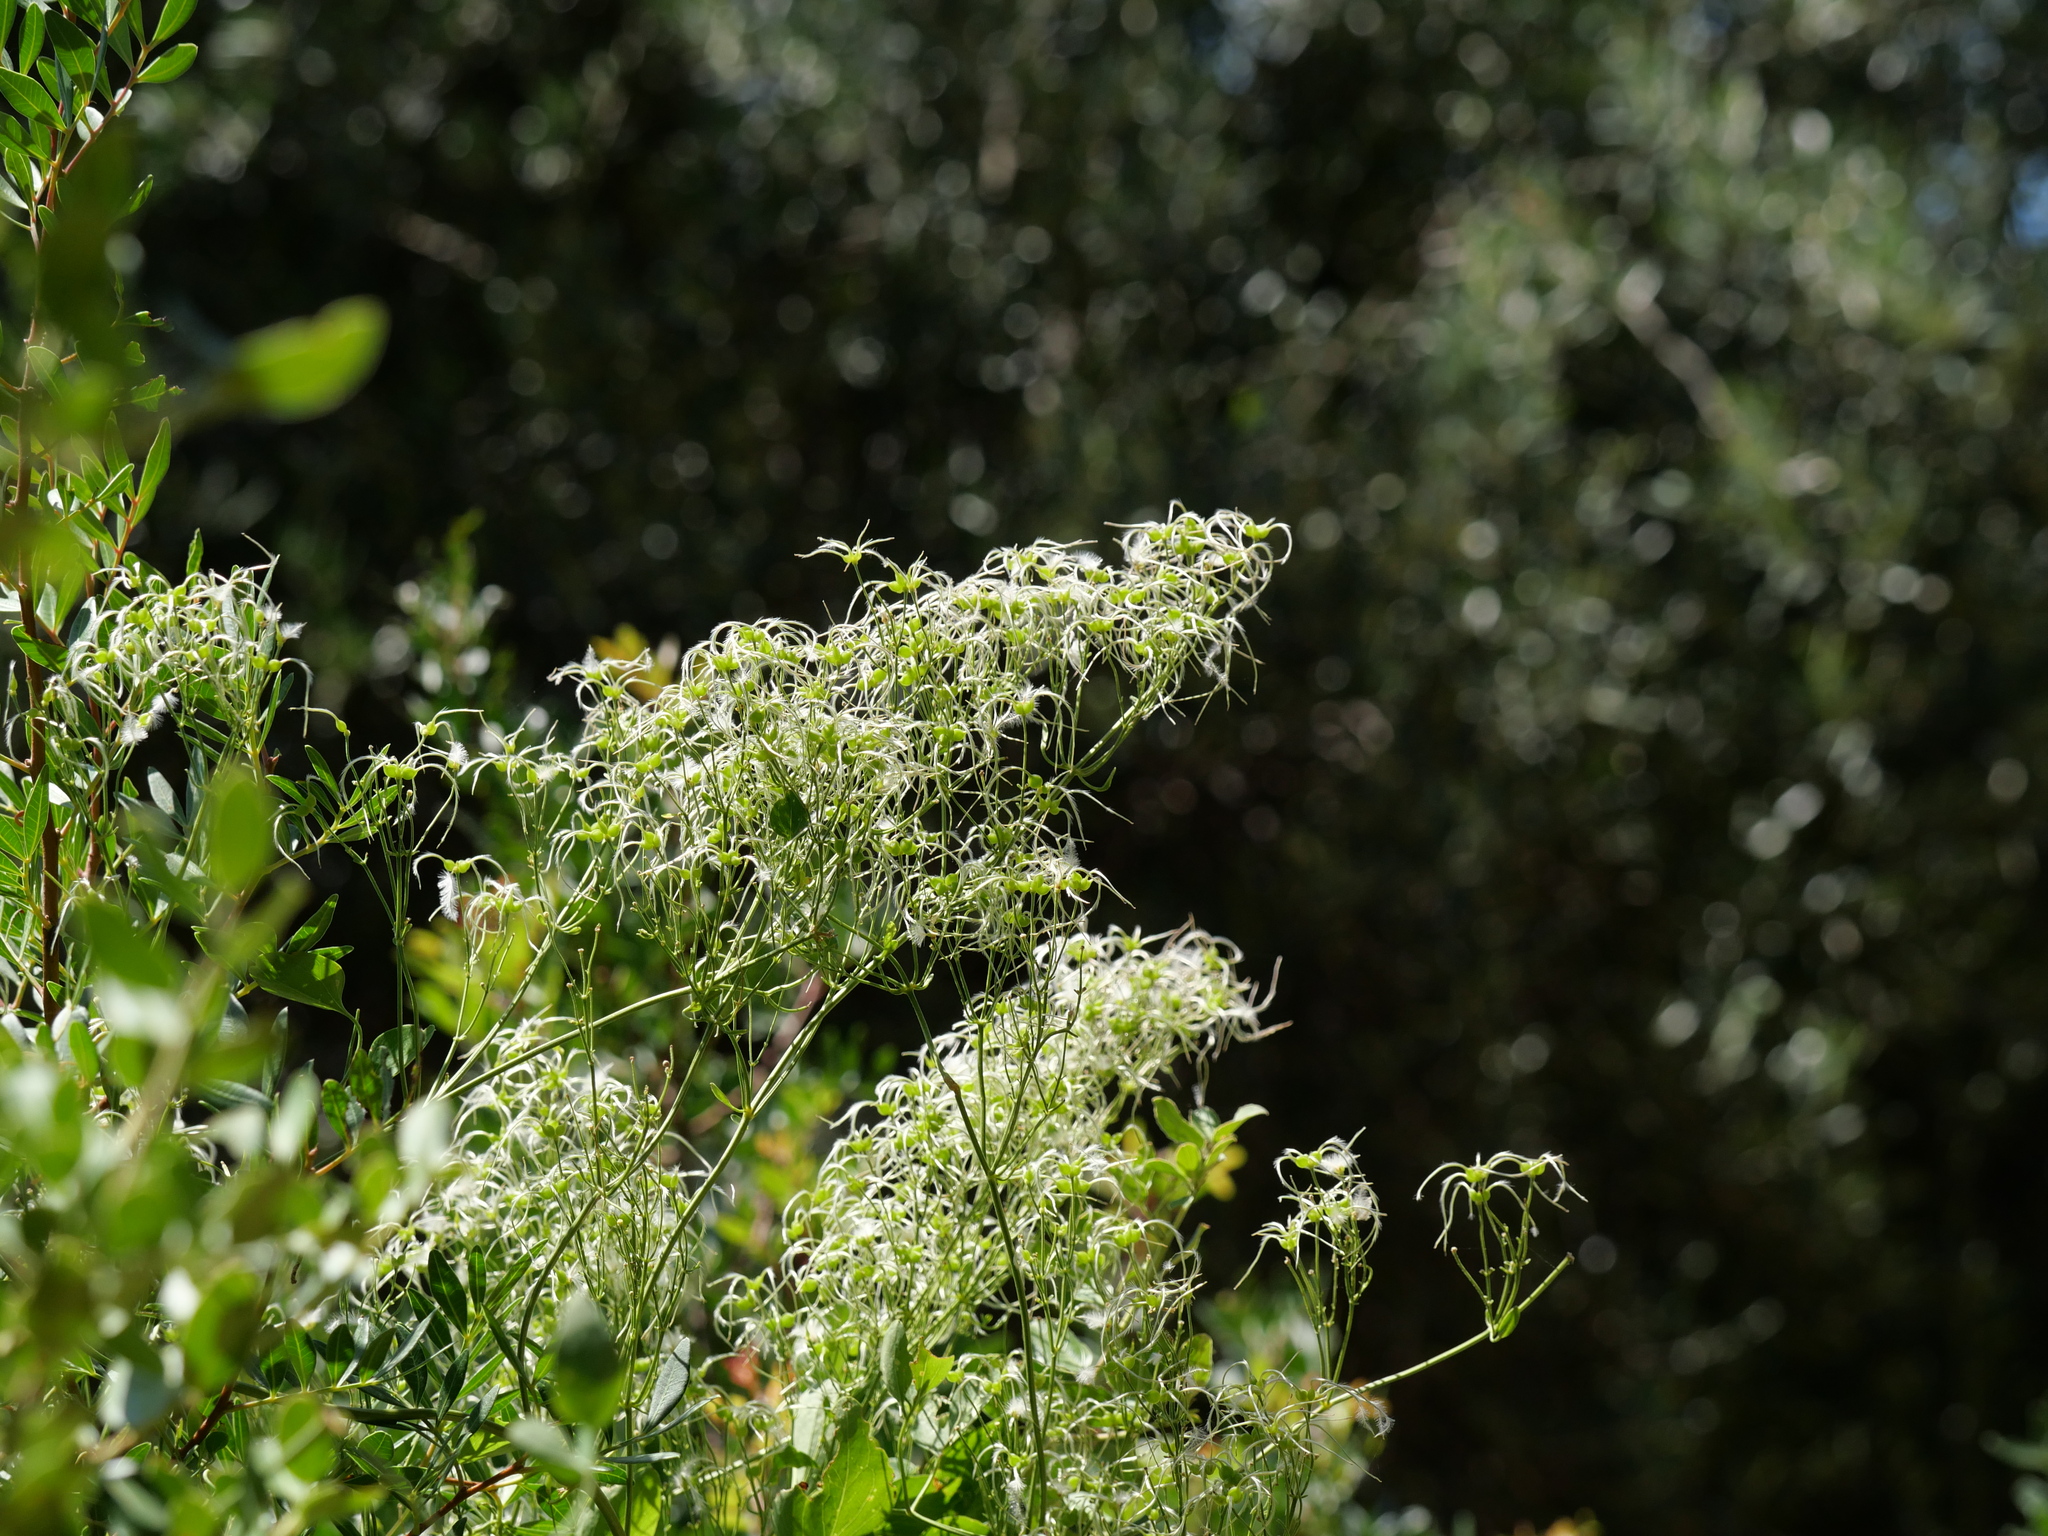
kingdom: Plantae
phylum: Tracheophyta
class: Magnoliopsida
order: Ranunculales
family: Ranunculaceae
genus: Clematis
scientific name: Clematis flammula
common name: Virgin's-bower
